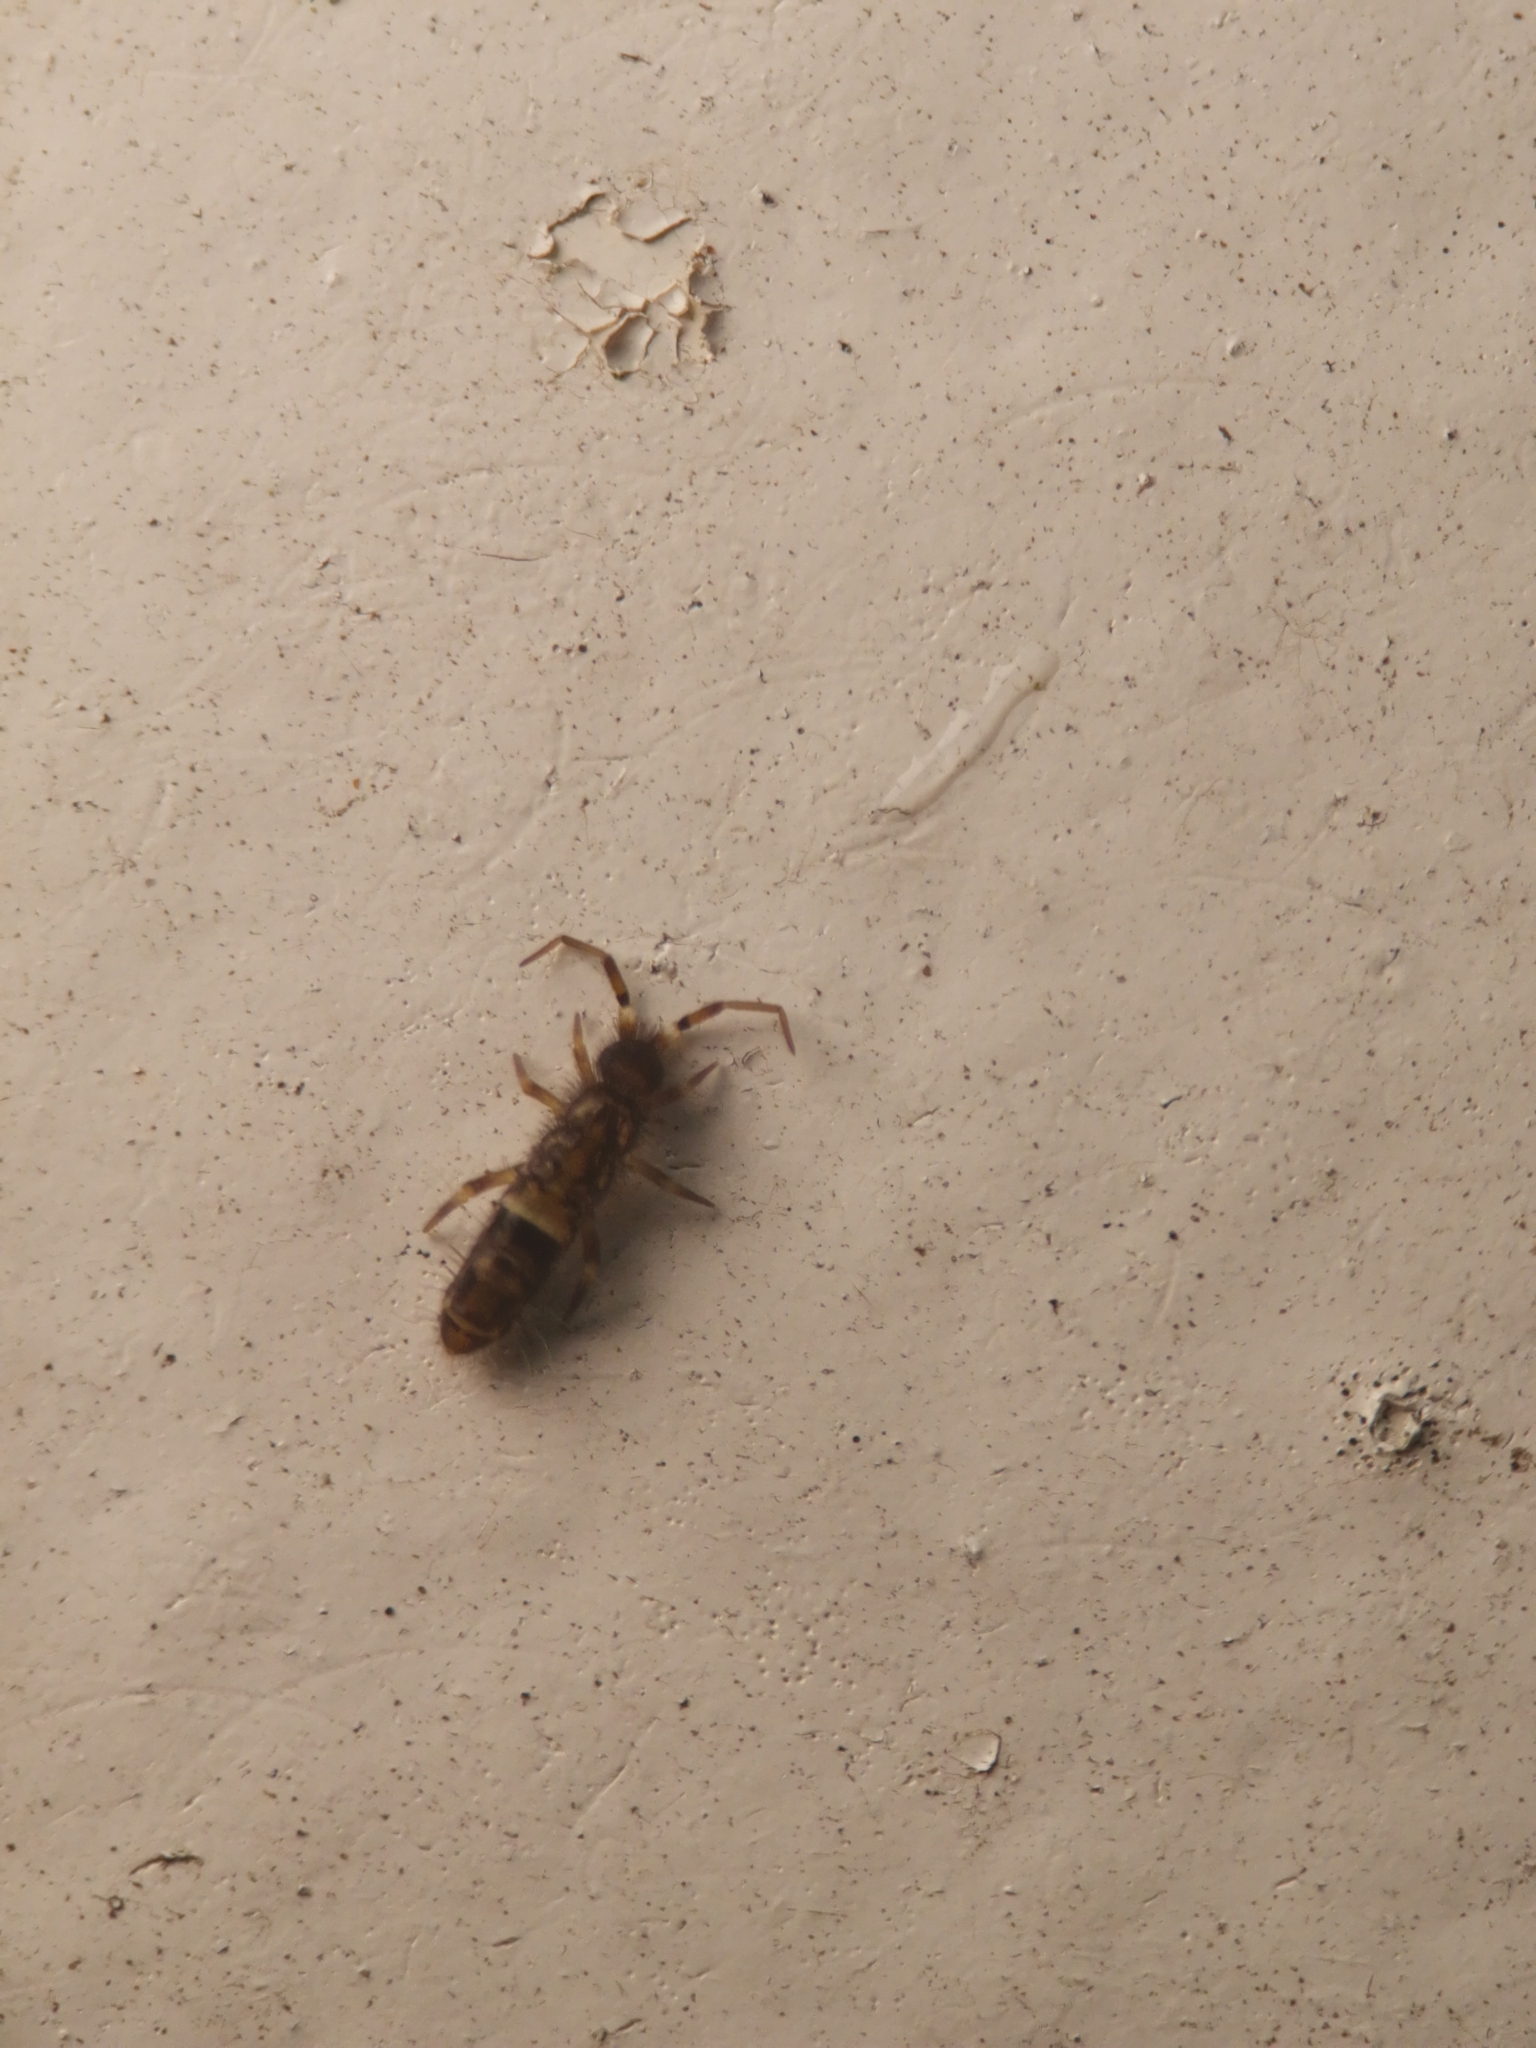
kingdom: Animalia
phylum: Arthropoda
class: Collembola
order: Entomobryomorpha
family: Orchesellidae
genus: Orchesella
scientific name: Orchesella cincta
